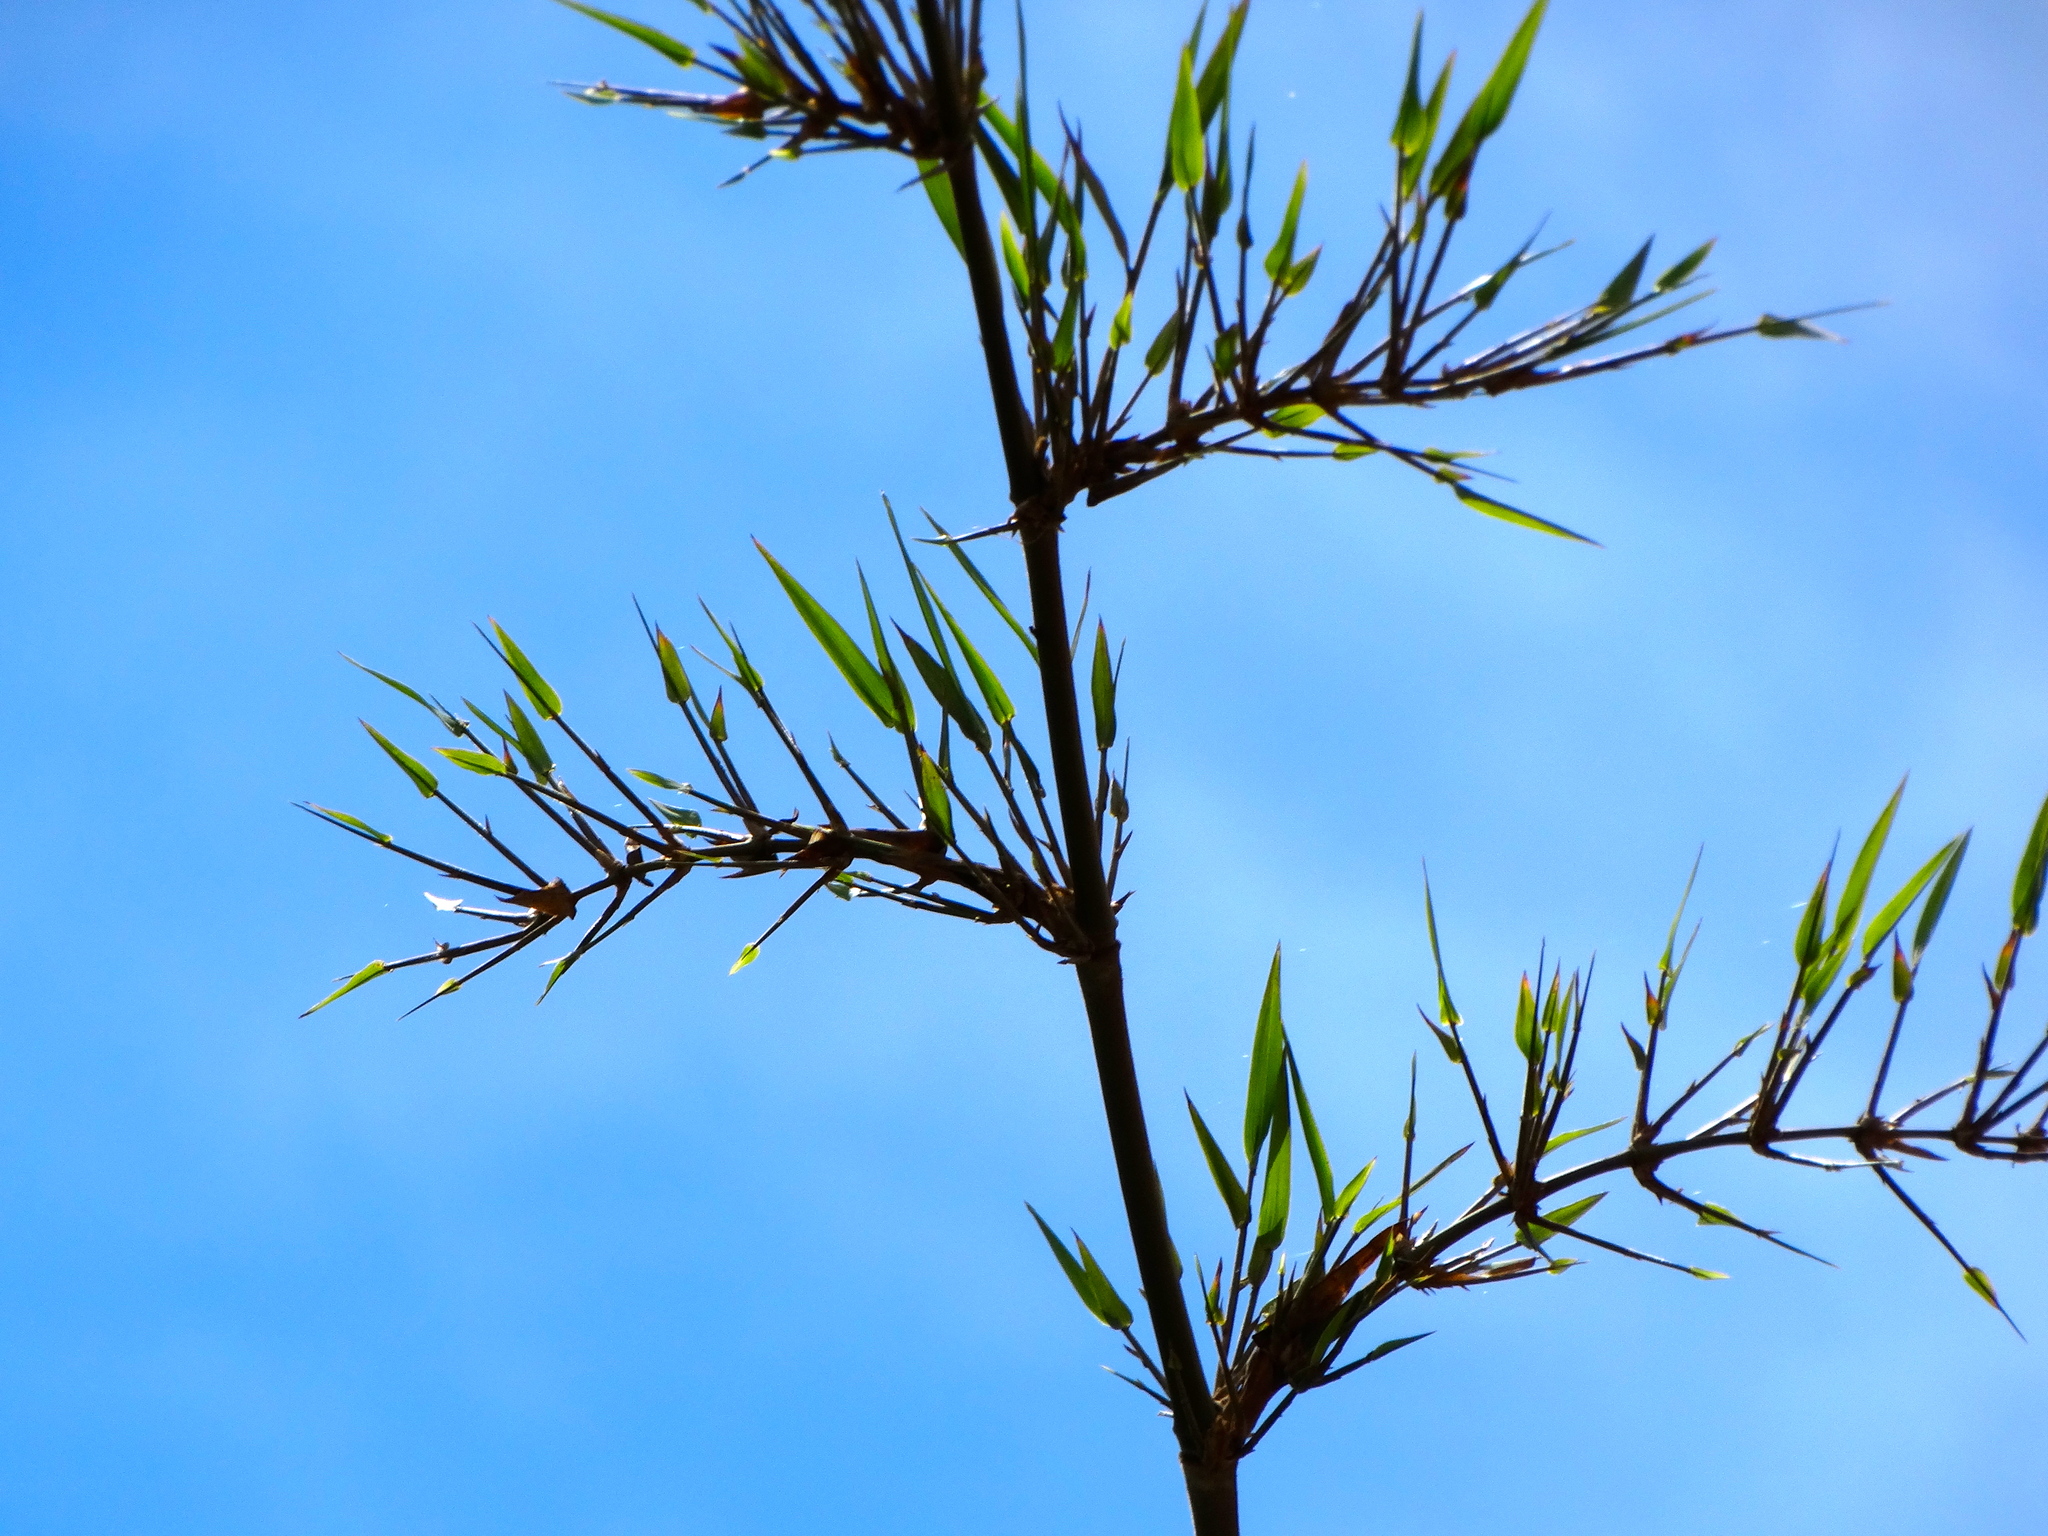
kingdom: Plantae
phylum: Tracheophyta
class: Liliopsida
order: Poales
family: Poaceae
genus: Guadua
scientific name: Guadua paniculata
